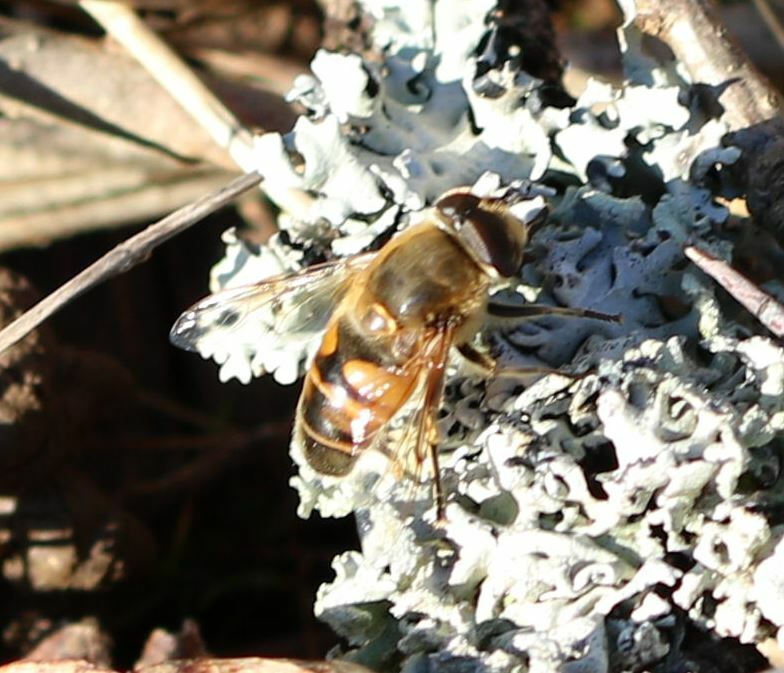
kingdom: Animalia
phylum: Arthropoda
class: Insecta
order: Diptera
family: Syrphidae
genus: Eristalis
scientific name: Eristalis tenax
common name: Drone fly
